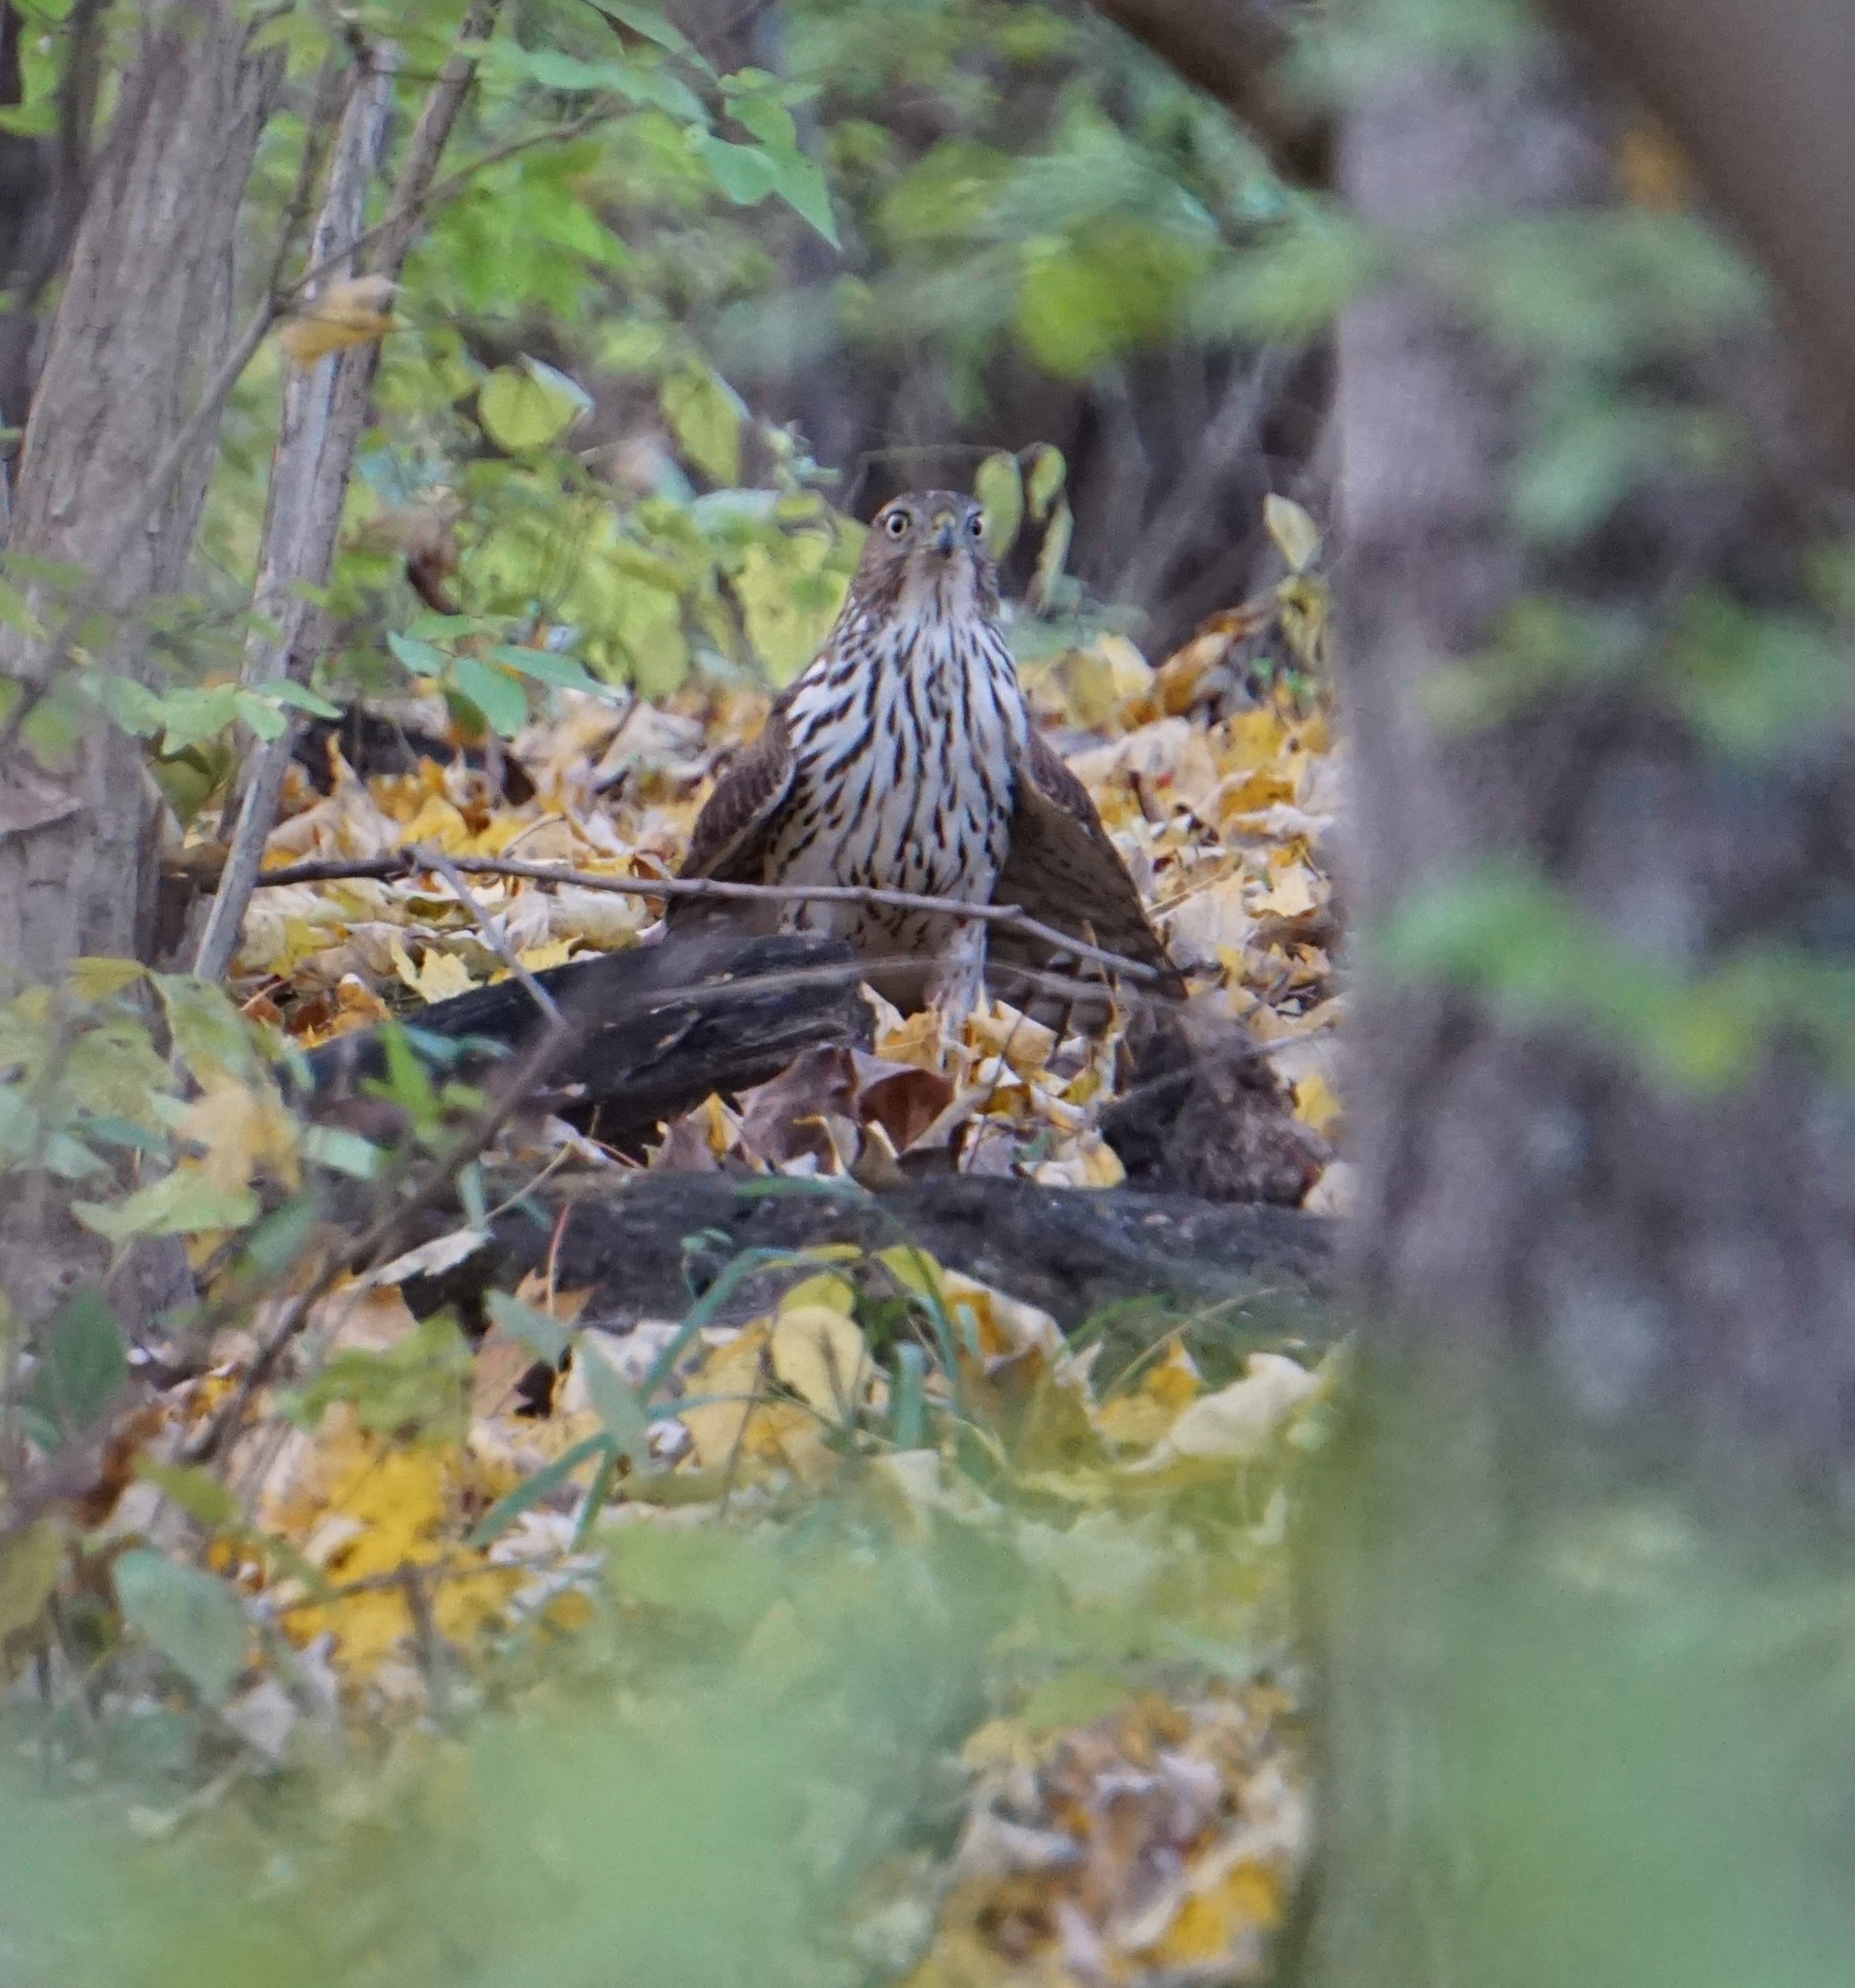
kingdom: Animalia
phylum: Chordata
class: Aves
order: Accipitriformes
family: Accipitridae
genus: Accipiter
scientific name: Accipiter cooperii
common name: Cooper's hawk
